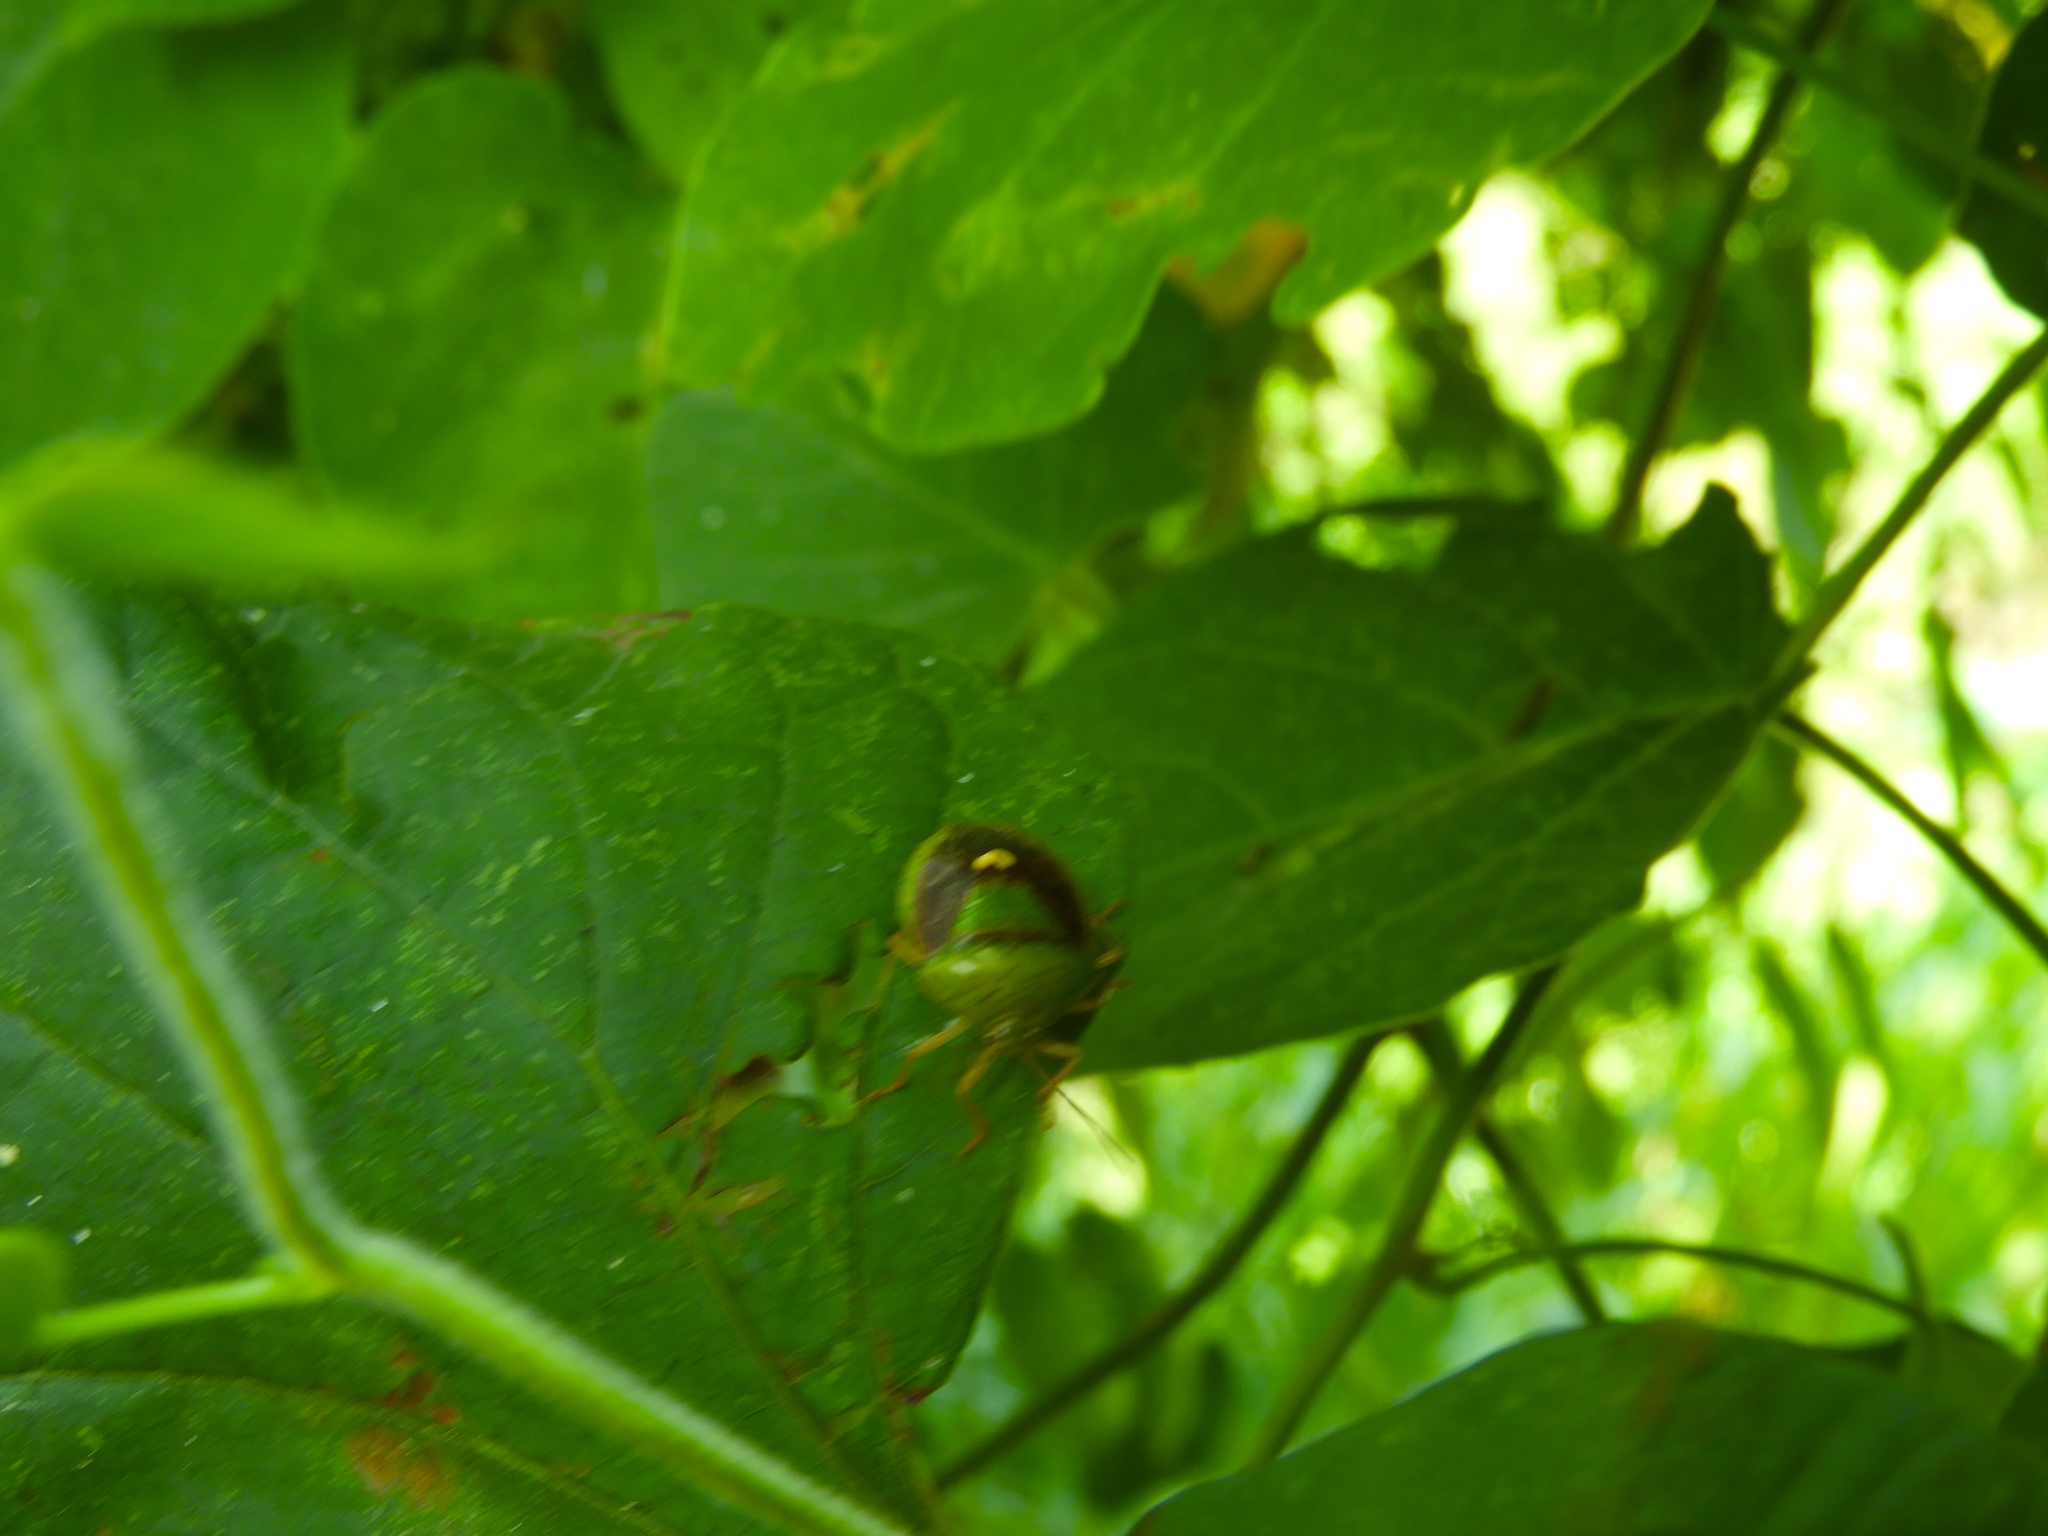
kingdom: Animalia
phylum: Arthropoda
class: Insecta
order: Hemiptera
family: Pentatomidae
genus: Edessa
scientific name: Edessa bifida
